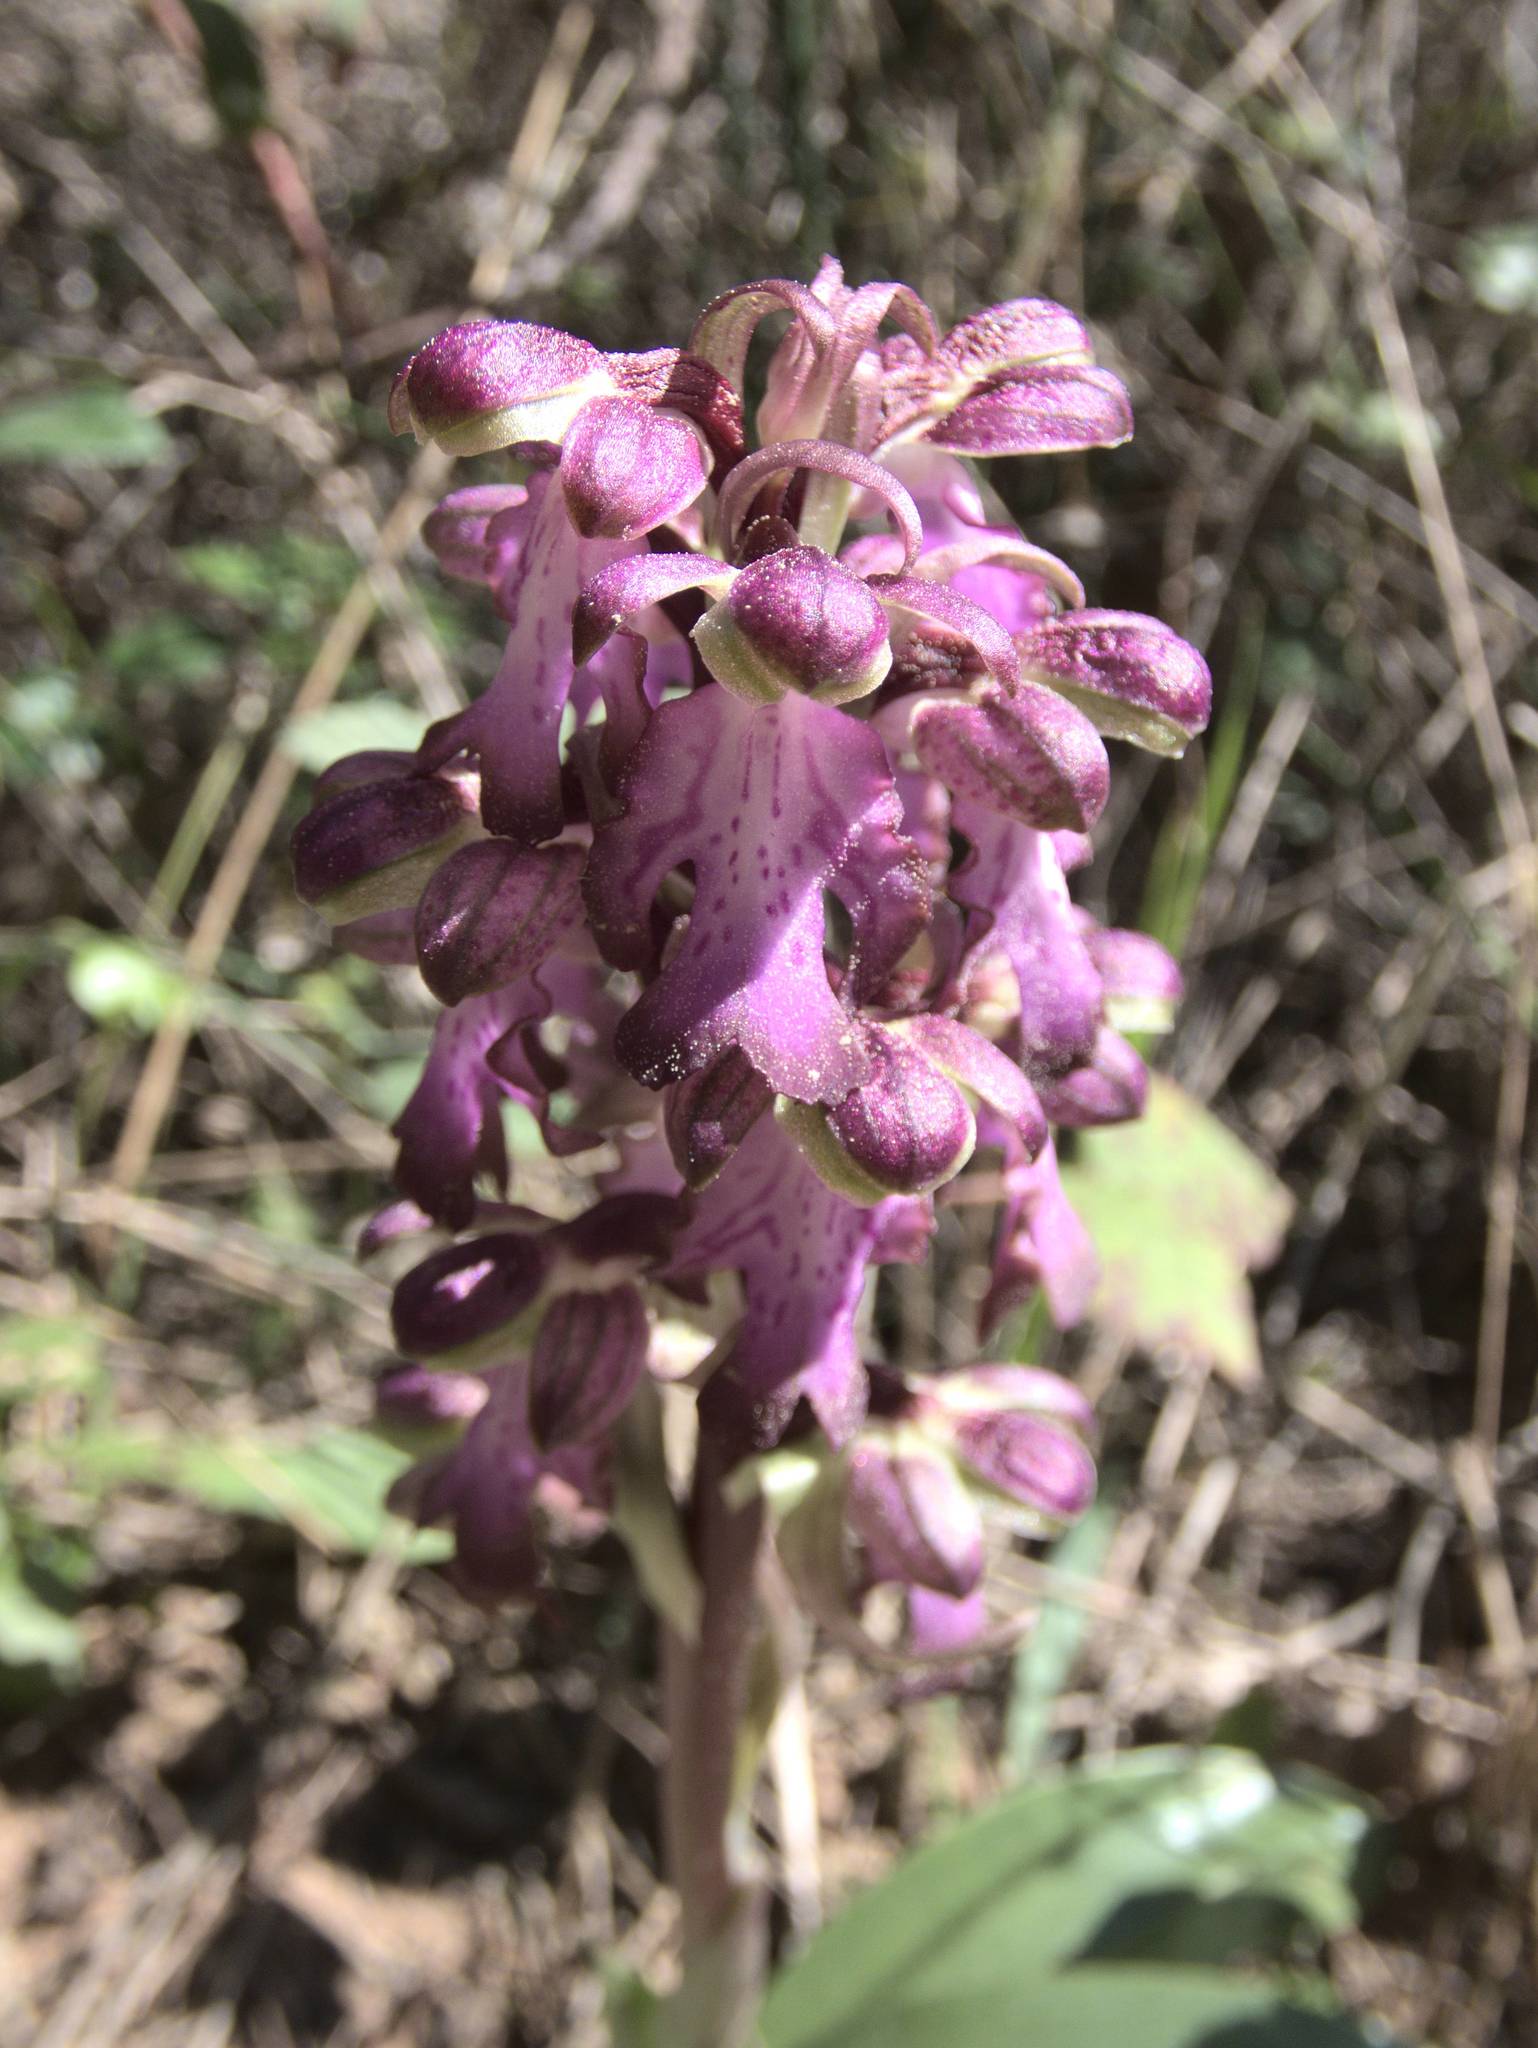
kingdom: Plantae
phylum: Tracheophyta
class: Liliopsida
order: Asparagales
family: Orchidaceae
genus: Himantoglossum
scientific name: Himantoglossum robertianum
